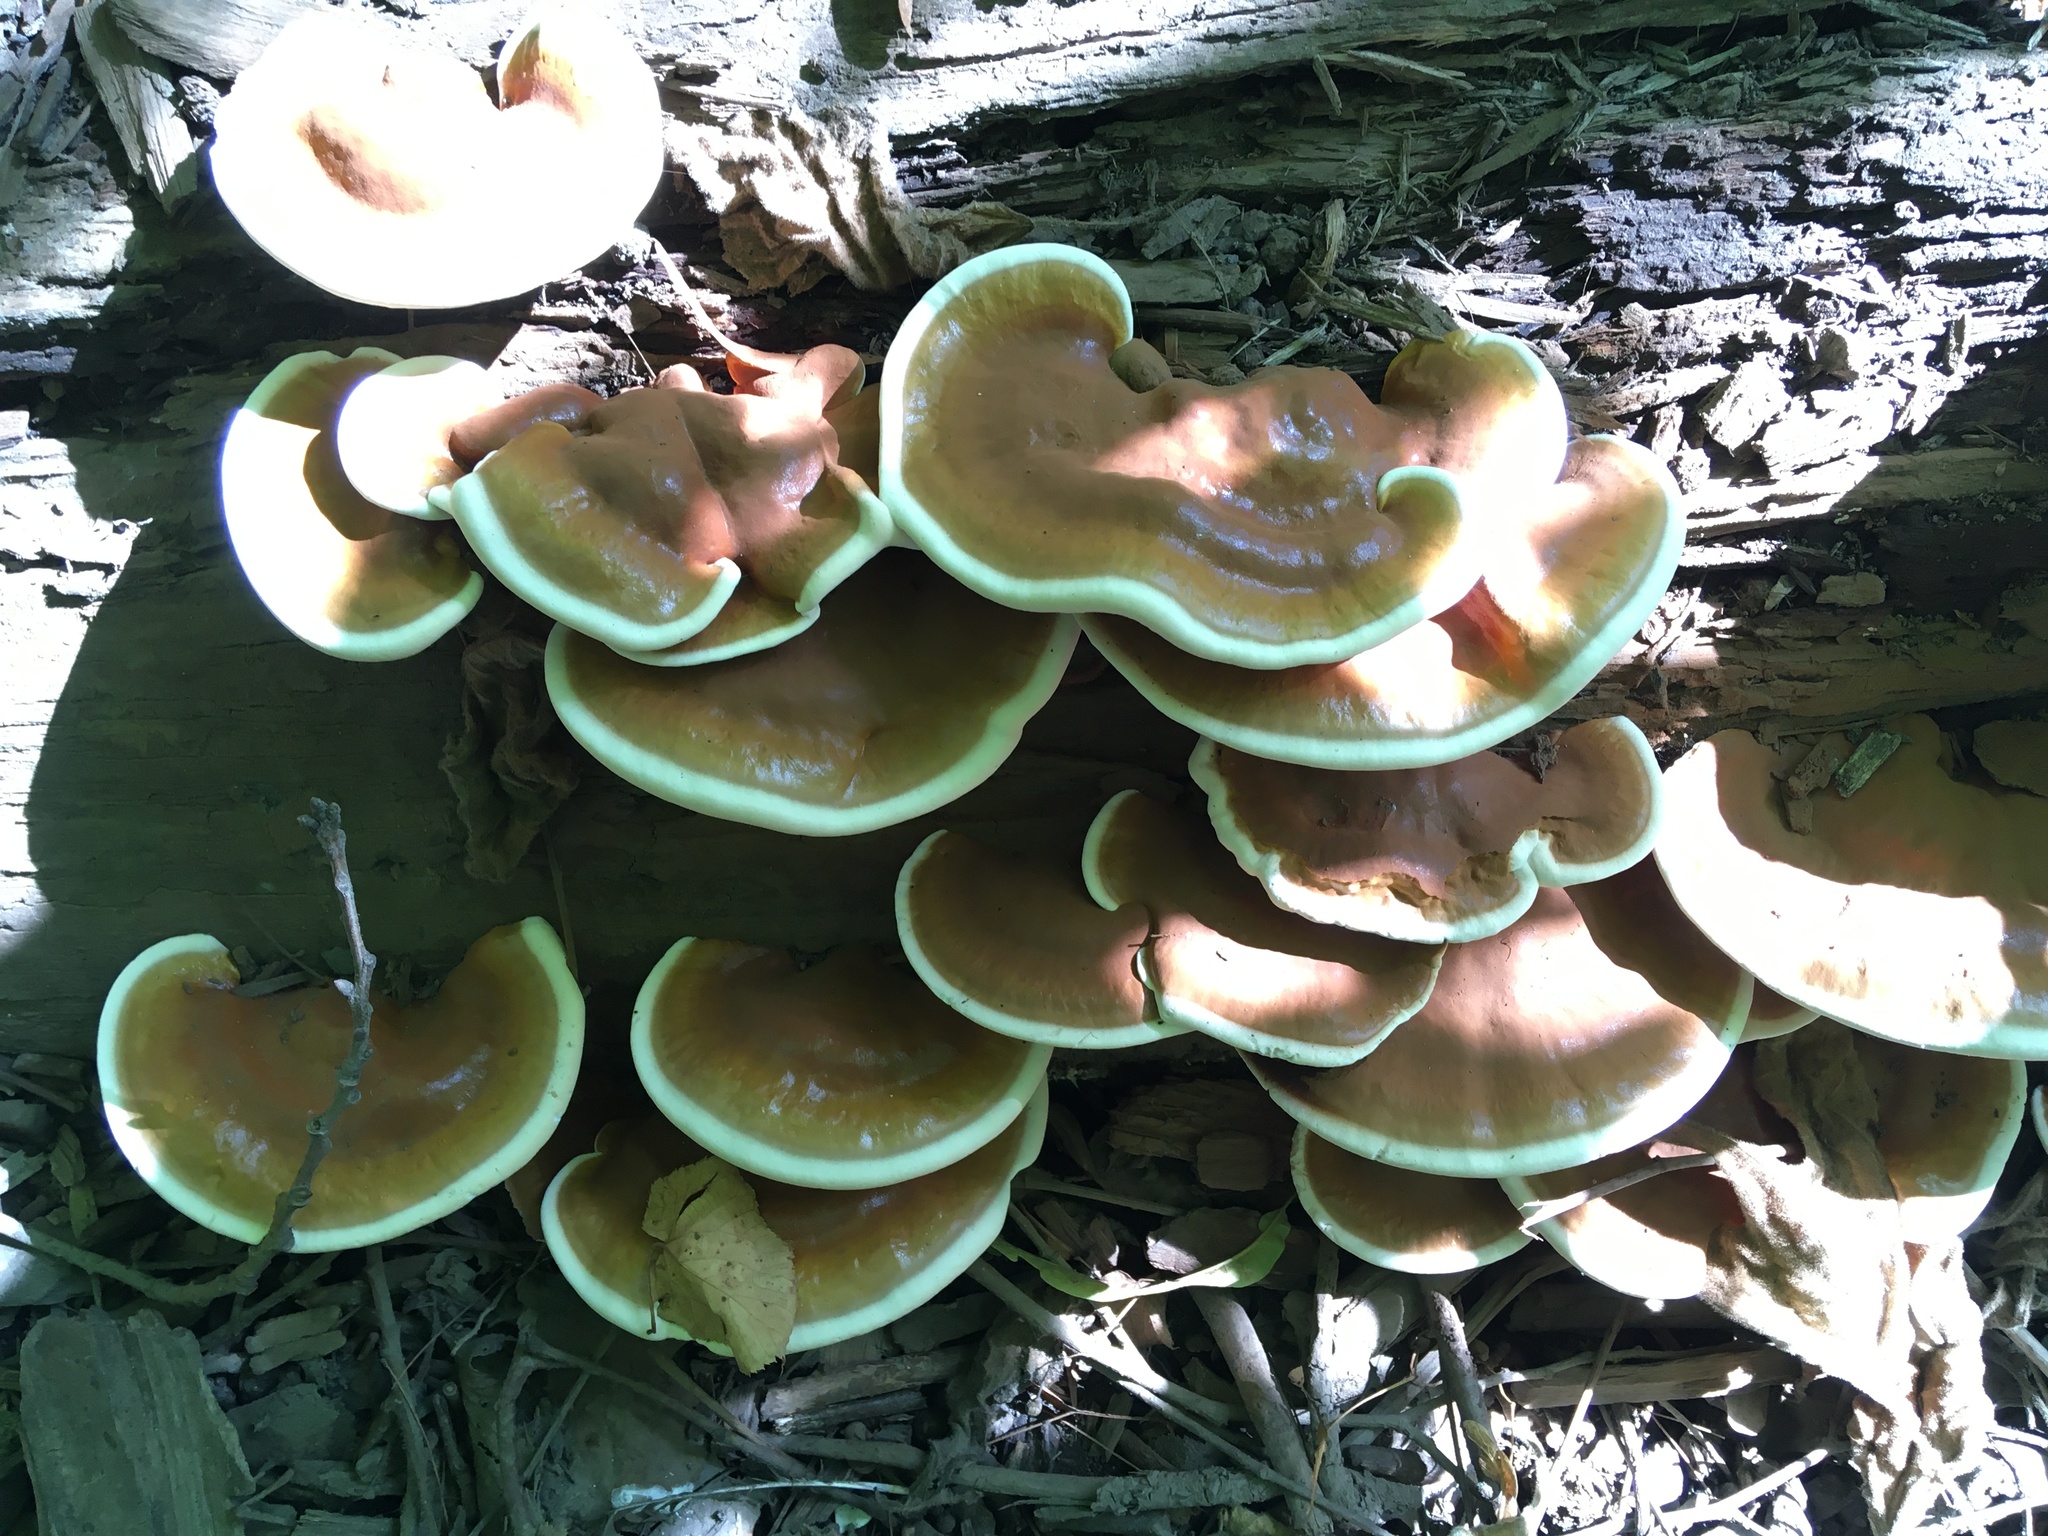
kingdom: Fungi
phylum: Basidiomycota
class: Agaricomycetes
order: Polyporales
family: Polyporaceae
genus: Ganoderma
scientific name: Ganoderma curtisii
